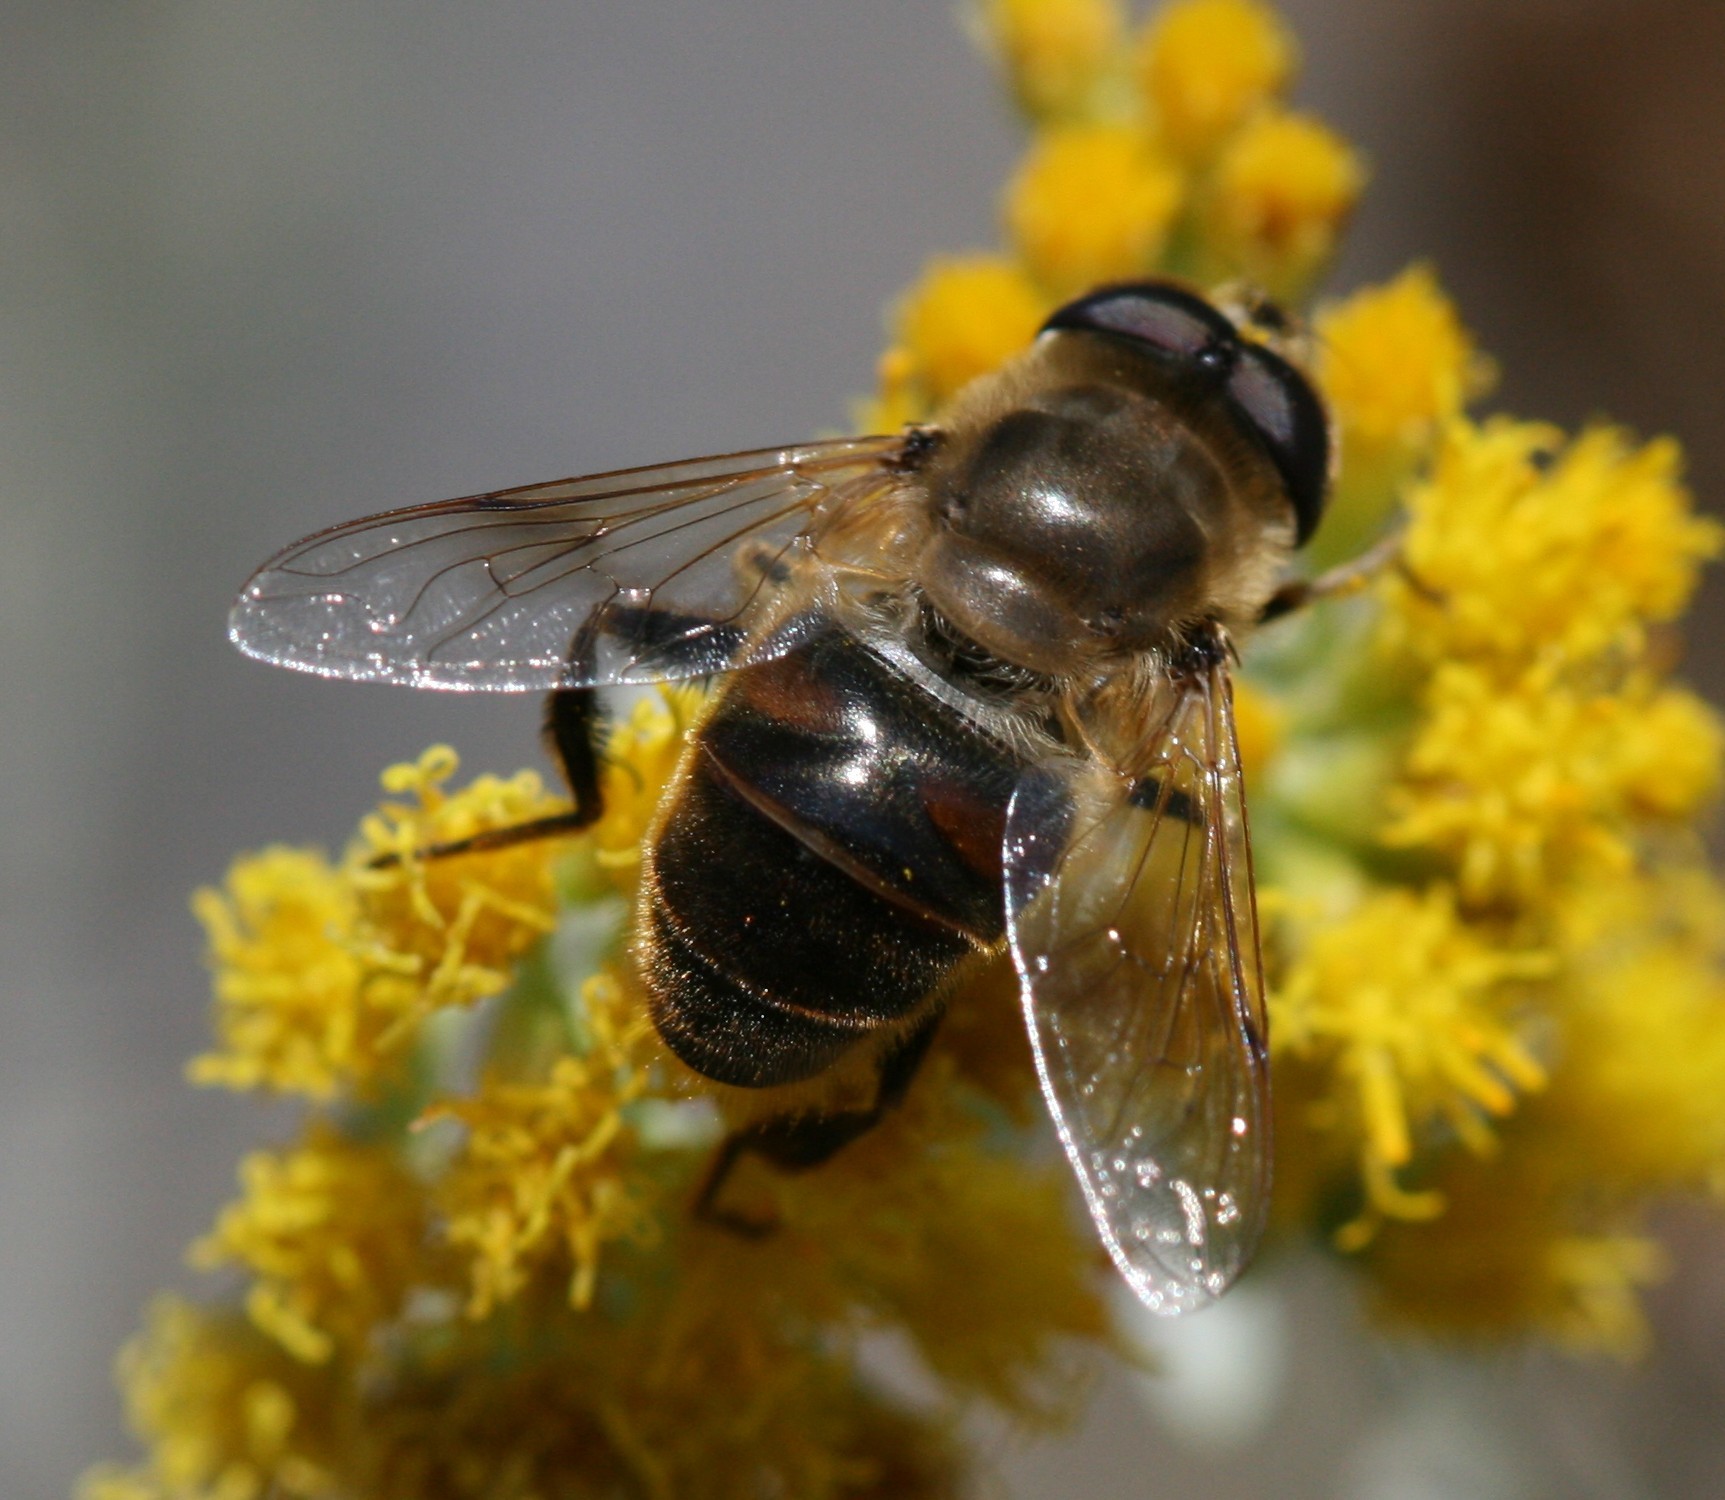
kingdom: Animalia
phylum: Arthropoda
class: Insecta
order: Diptera
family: Syrphidae
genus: Eristalis
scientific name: Eristalis tenax
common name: Drone fly
